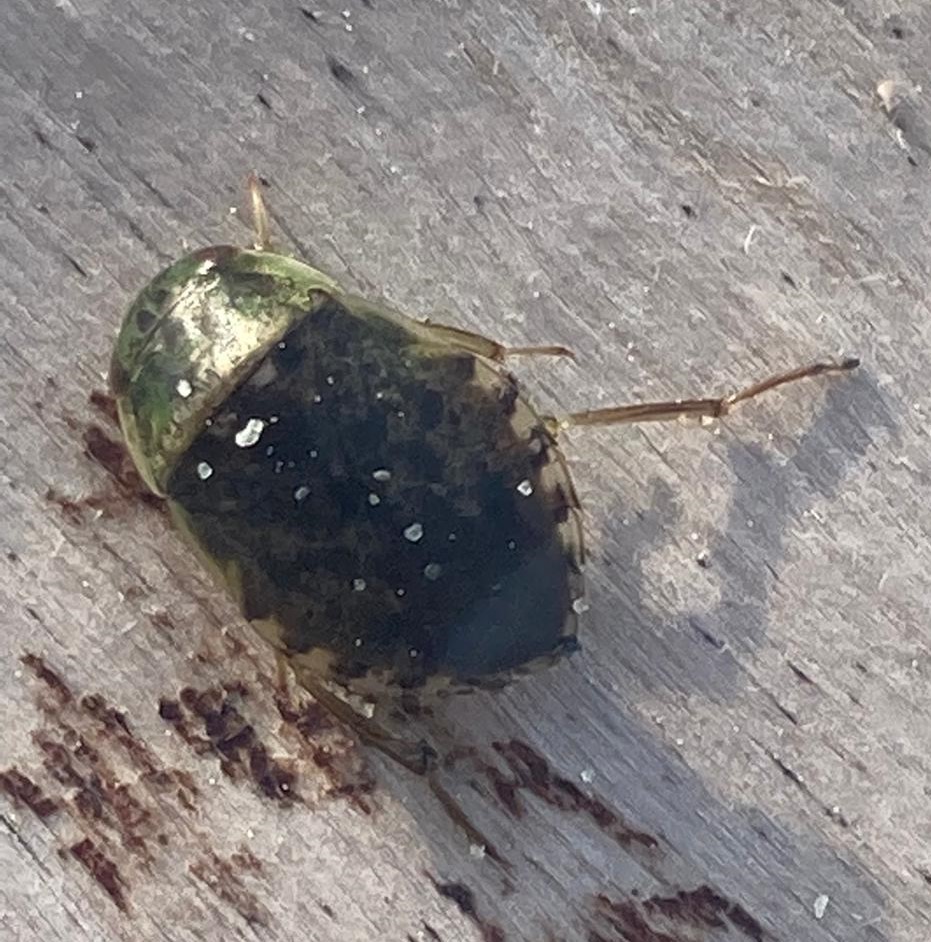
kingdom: Animalia
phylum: Arthropoda
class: Insecta
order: Hemiptera
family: Naucoridae
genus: Naucoris
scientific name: Naucoris maculatus
